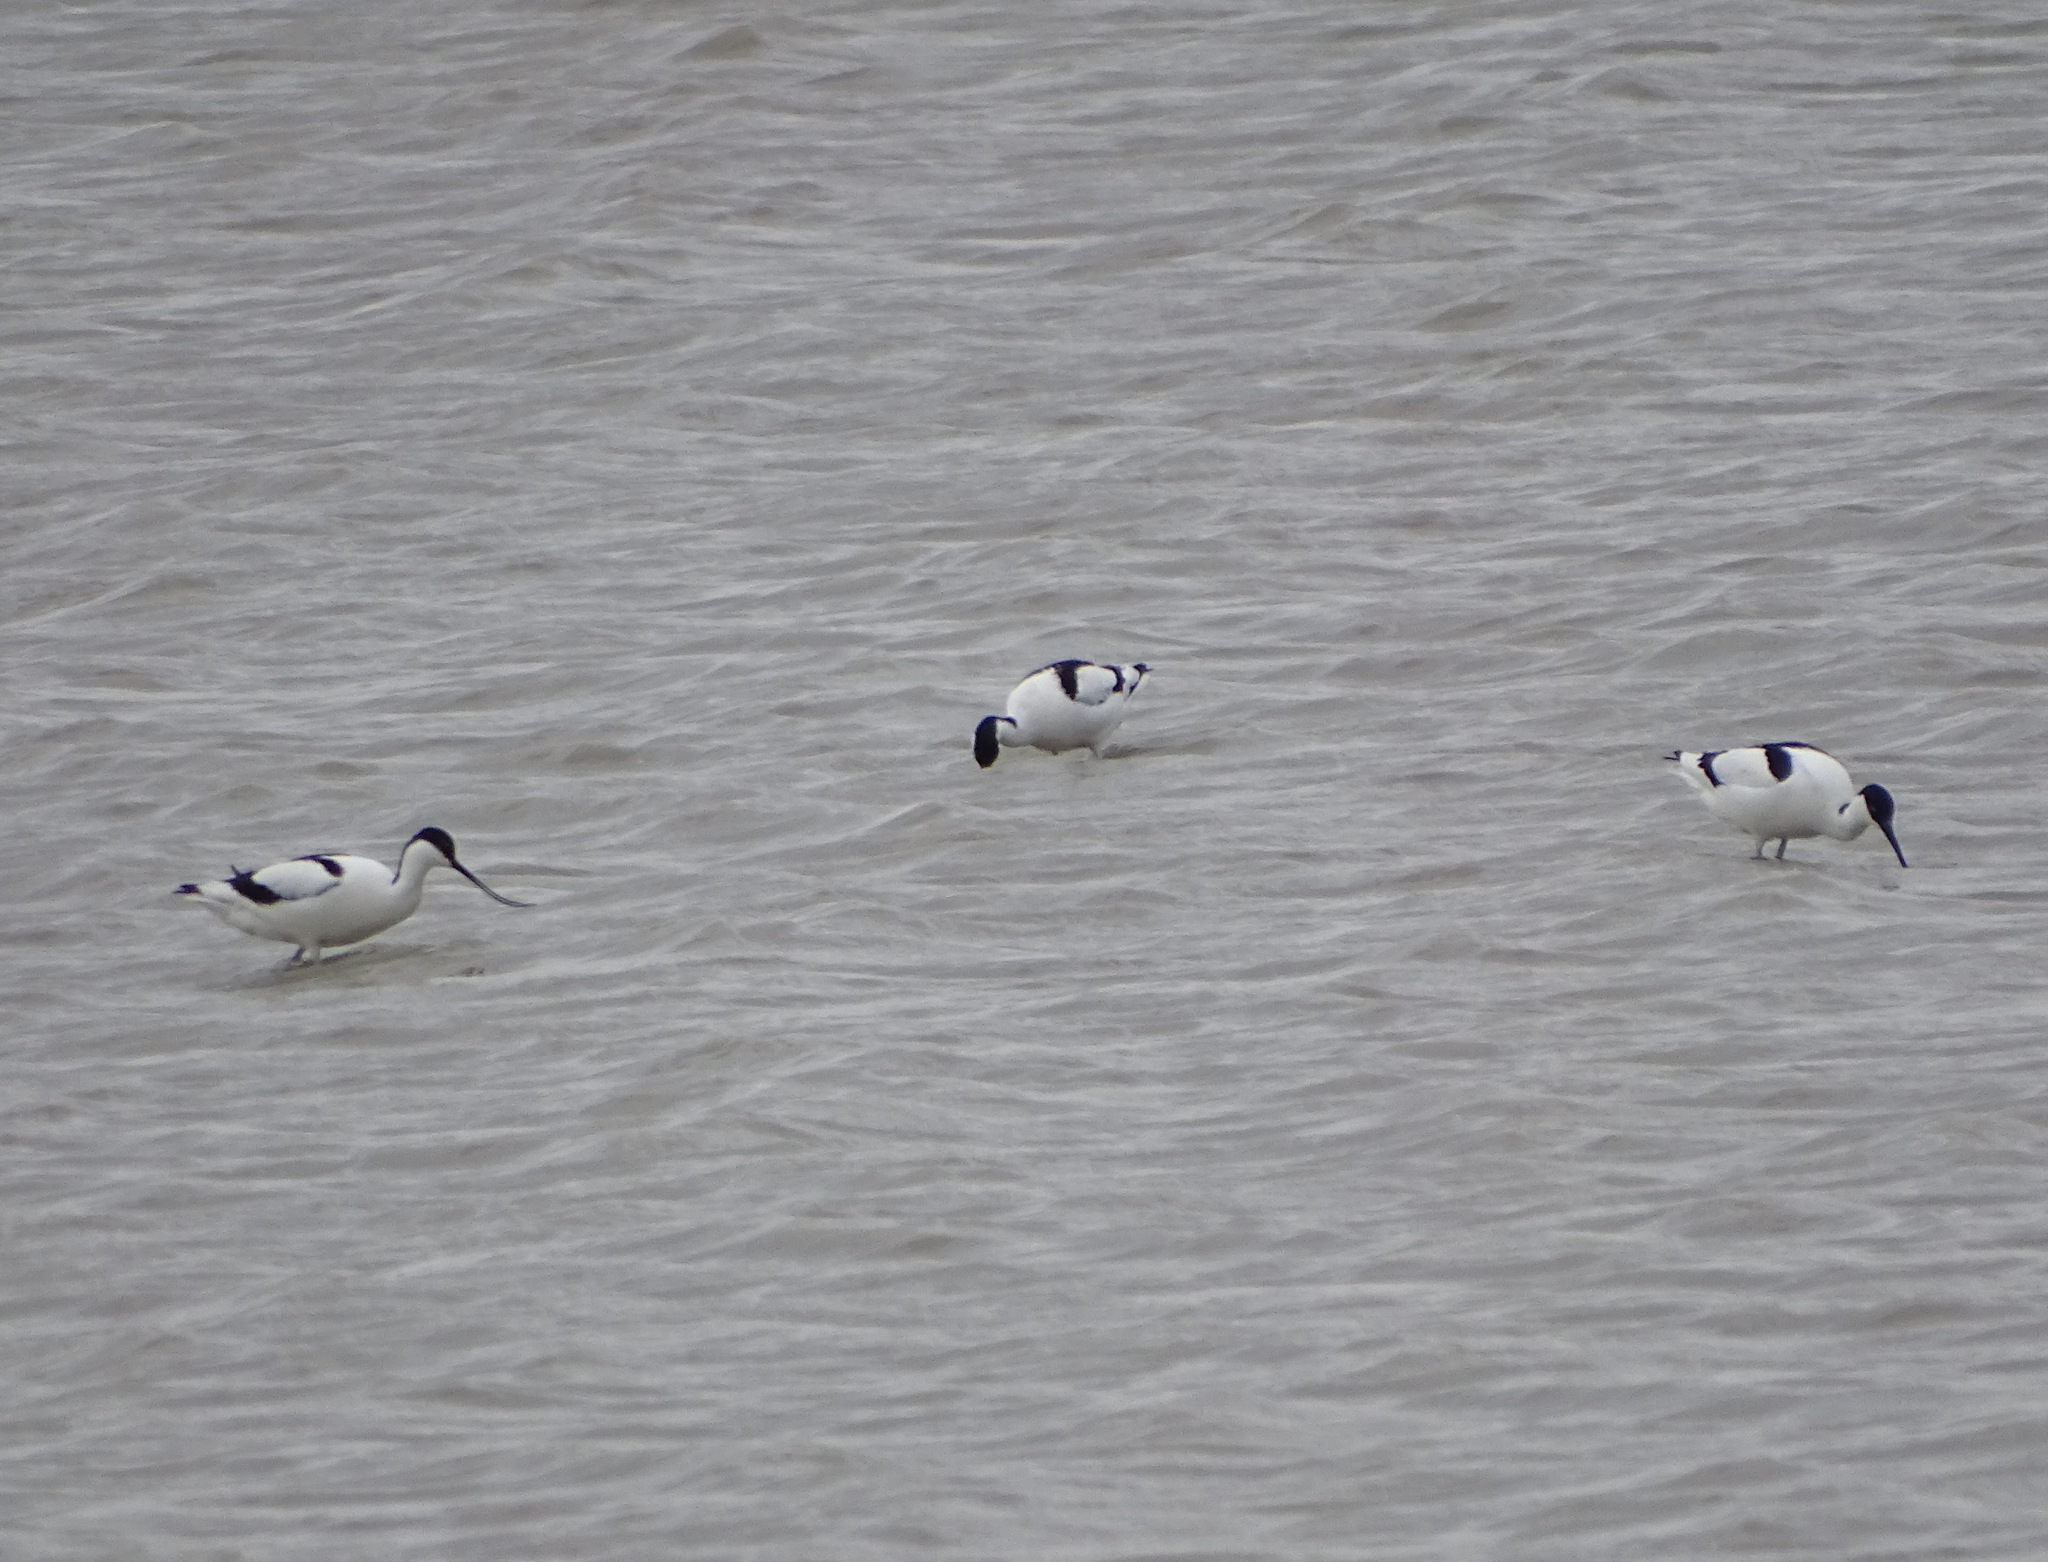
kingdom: Animalia
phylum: Chordata
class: Aves
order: Charadriiformes
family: Recurvirostridae
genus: Recurvirostra
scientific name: Recurvirostra avosetta
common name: Pied avocet
